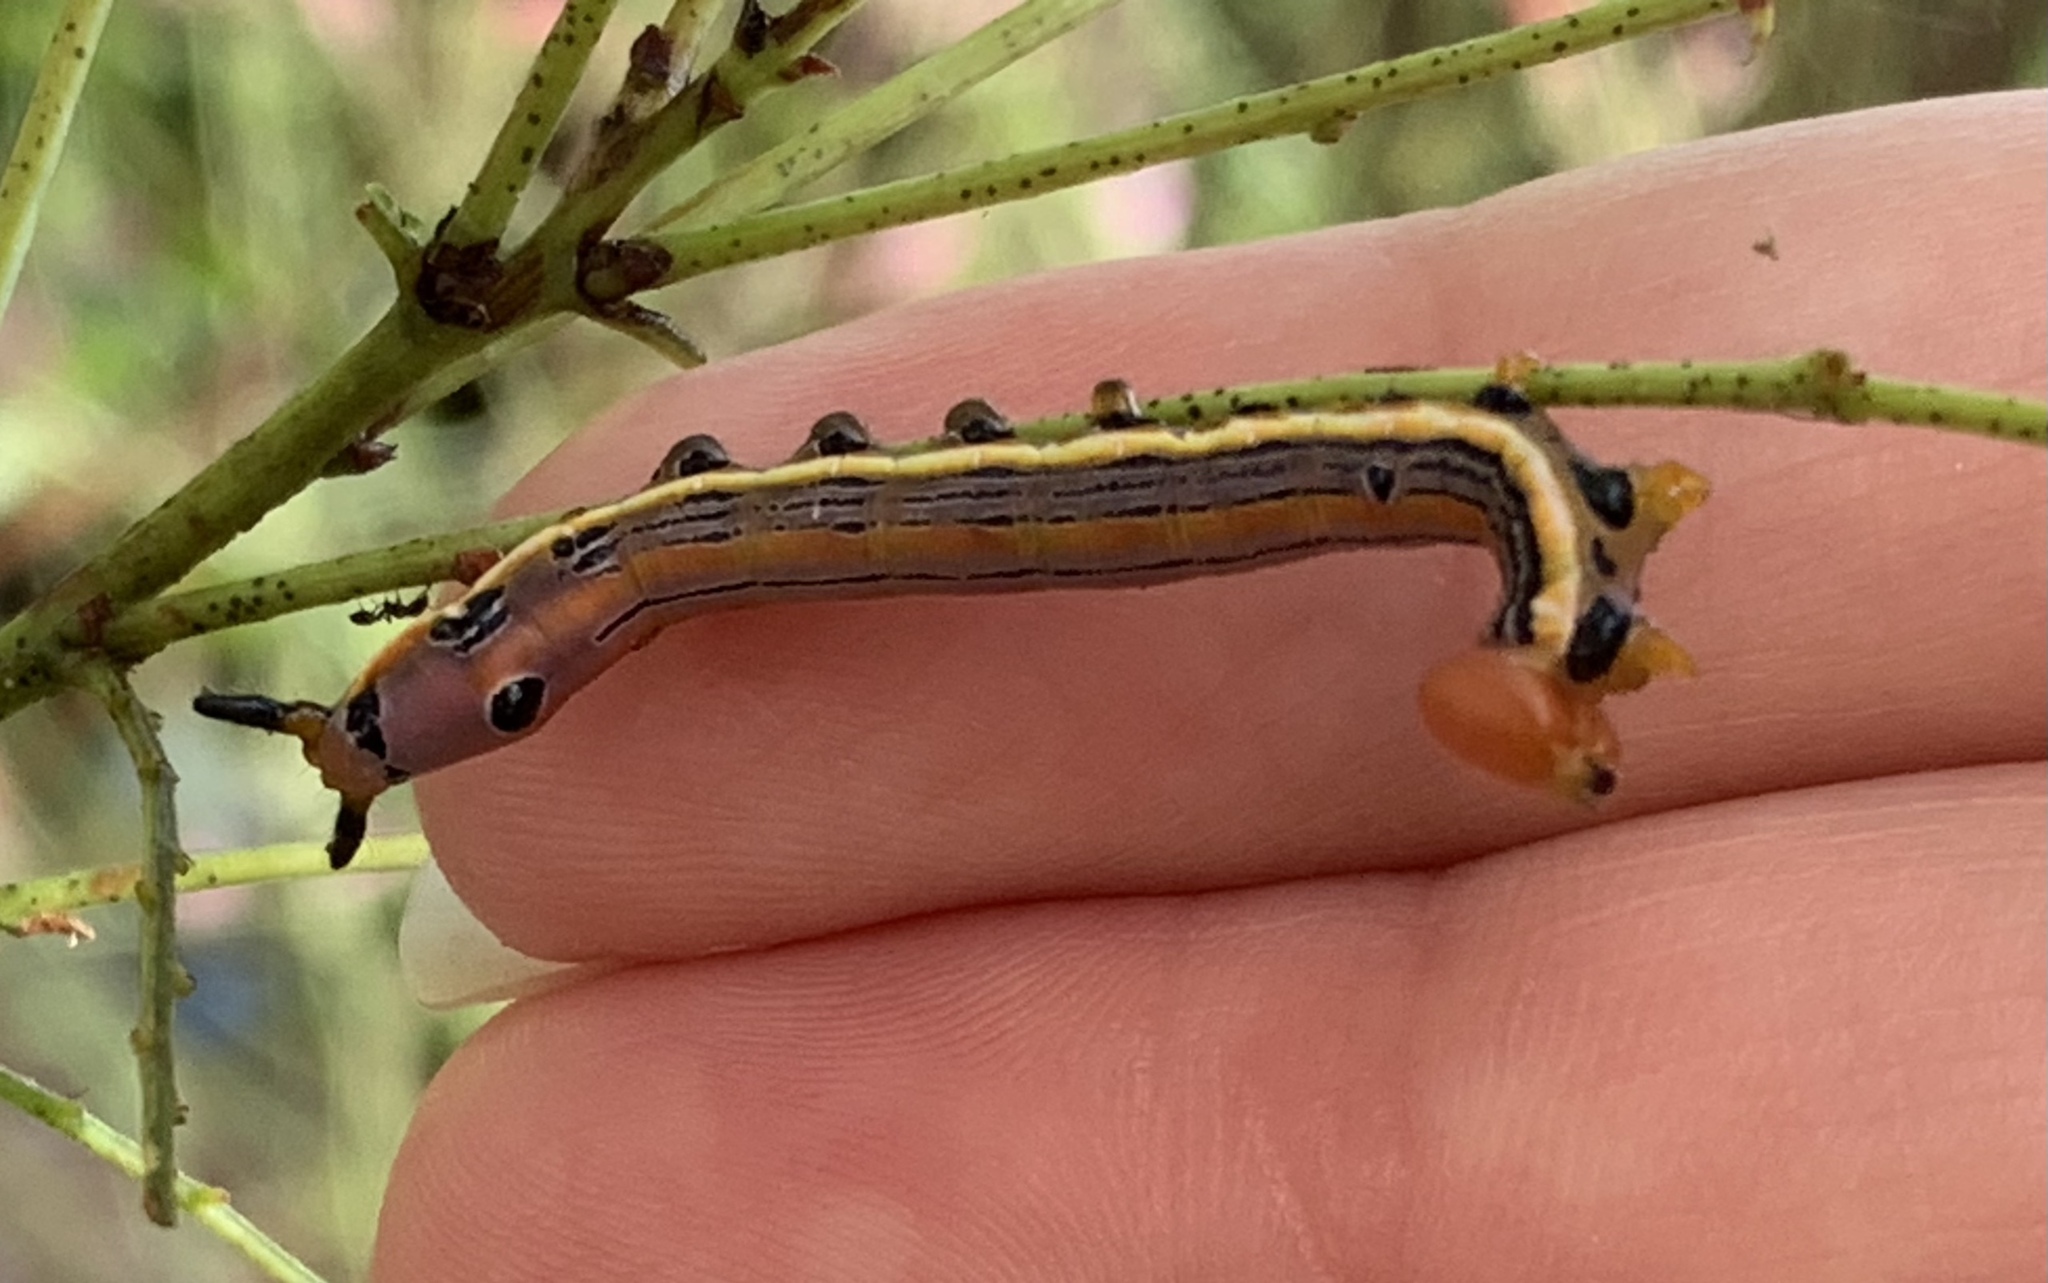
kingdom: Animalia
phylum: Arthropoda
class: Insecta
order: Lepidoptera
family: Notodontidae
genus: Dasylophia
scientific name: Dasylophia anguina
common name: Black-spotted prominent
